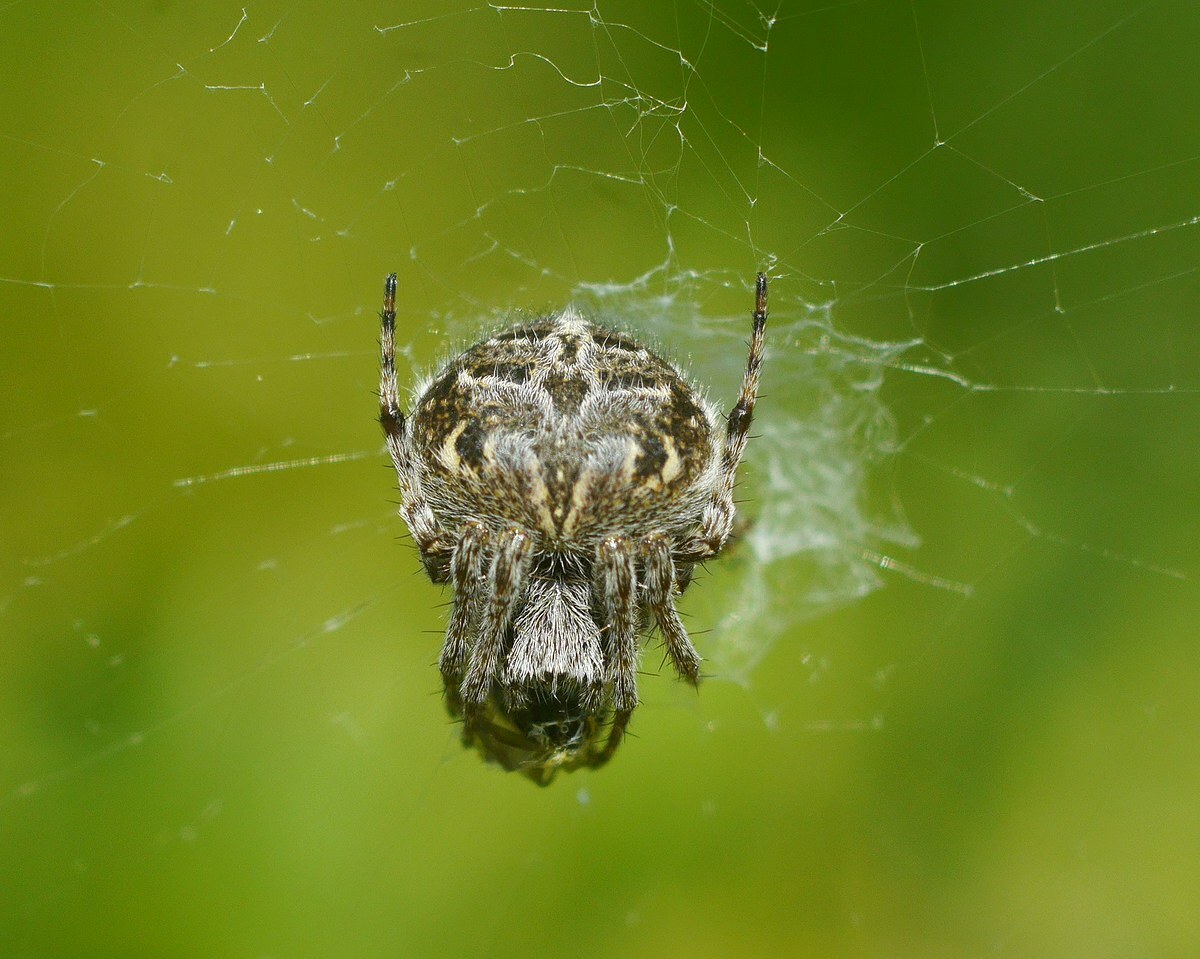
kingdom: Animalia
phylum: Arthropoda
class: Arachnida
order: Araneae
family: Araneidae
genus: Agalenatea
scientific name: Agalenatea redii
